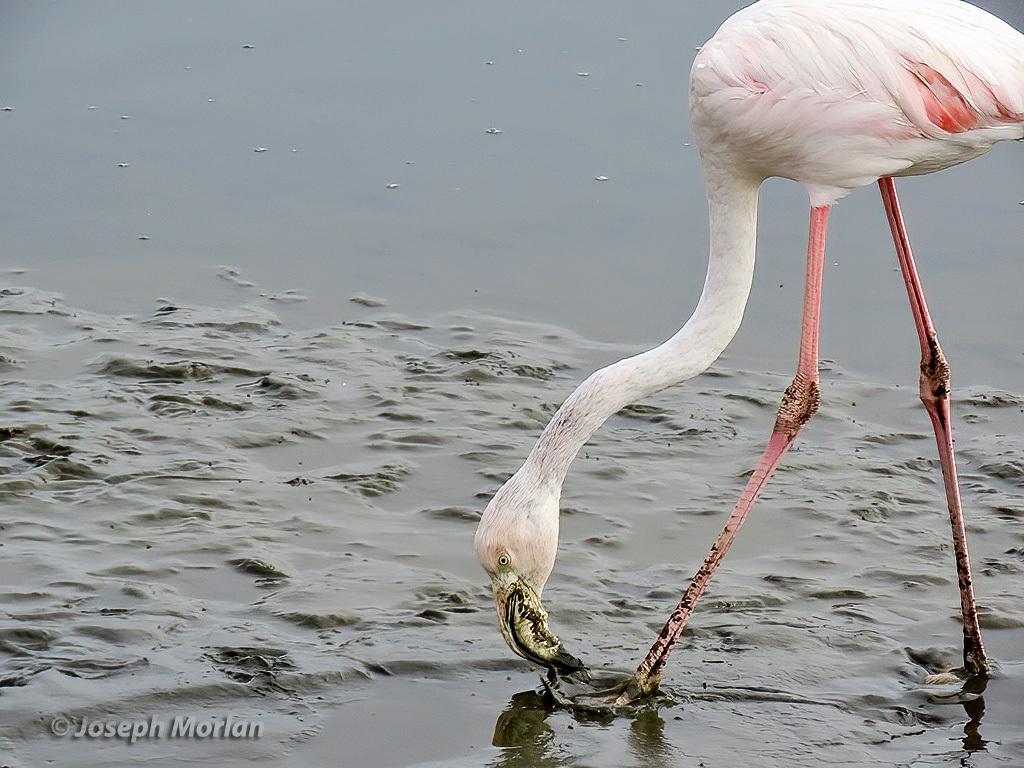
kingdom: Animalia
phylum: Chordata
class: Aves
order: Phoenicopteriformes
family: Phoenicopteridae
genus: Phoenicopterus
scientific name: Phoenicopterus roseus
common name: Greater flamingo
